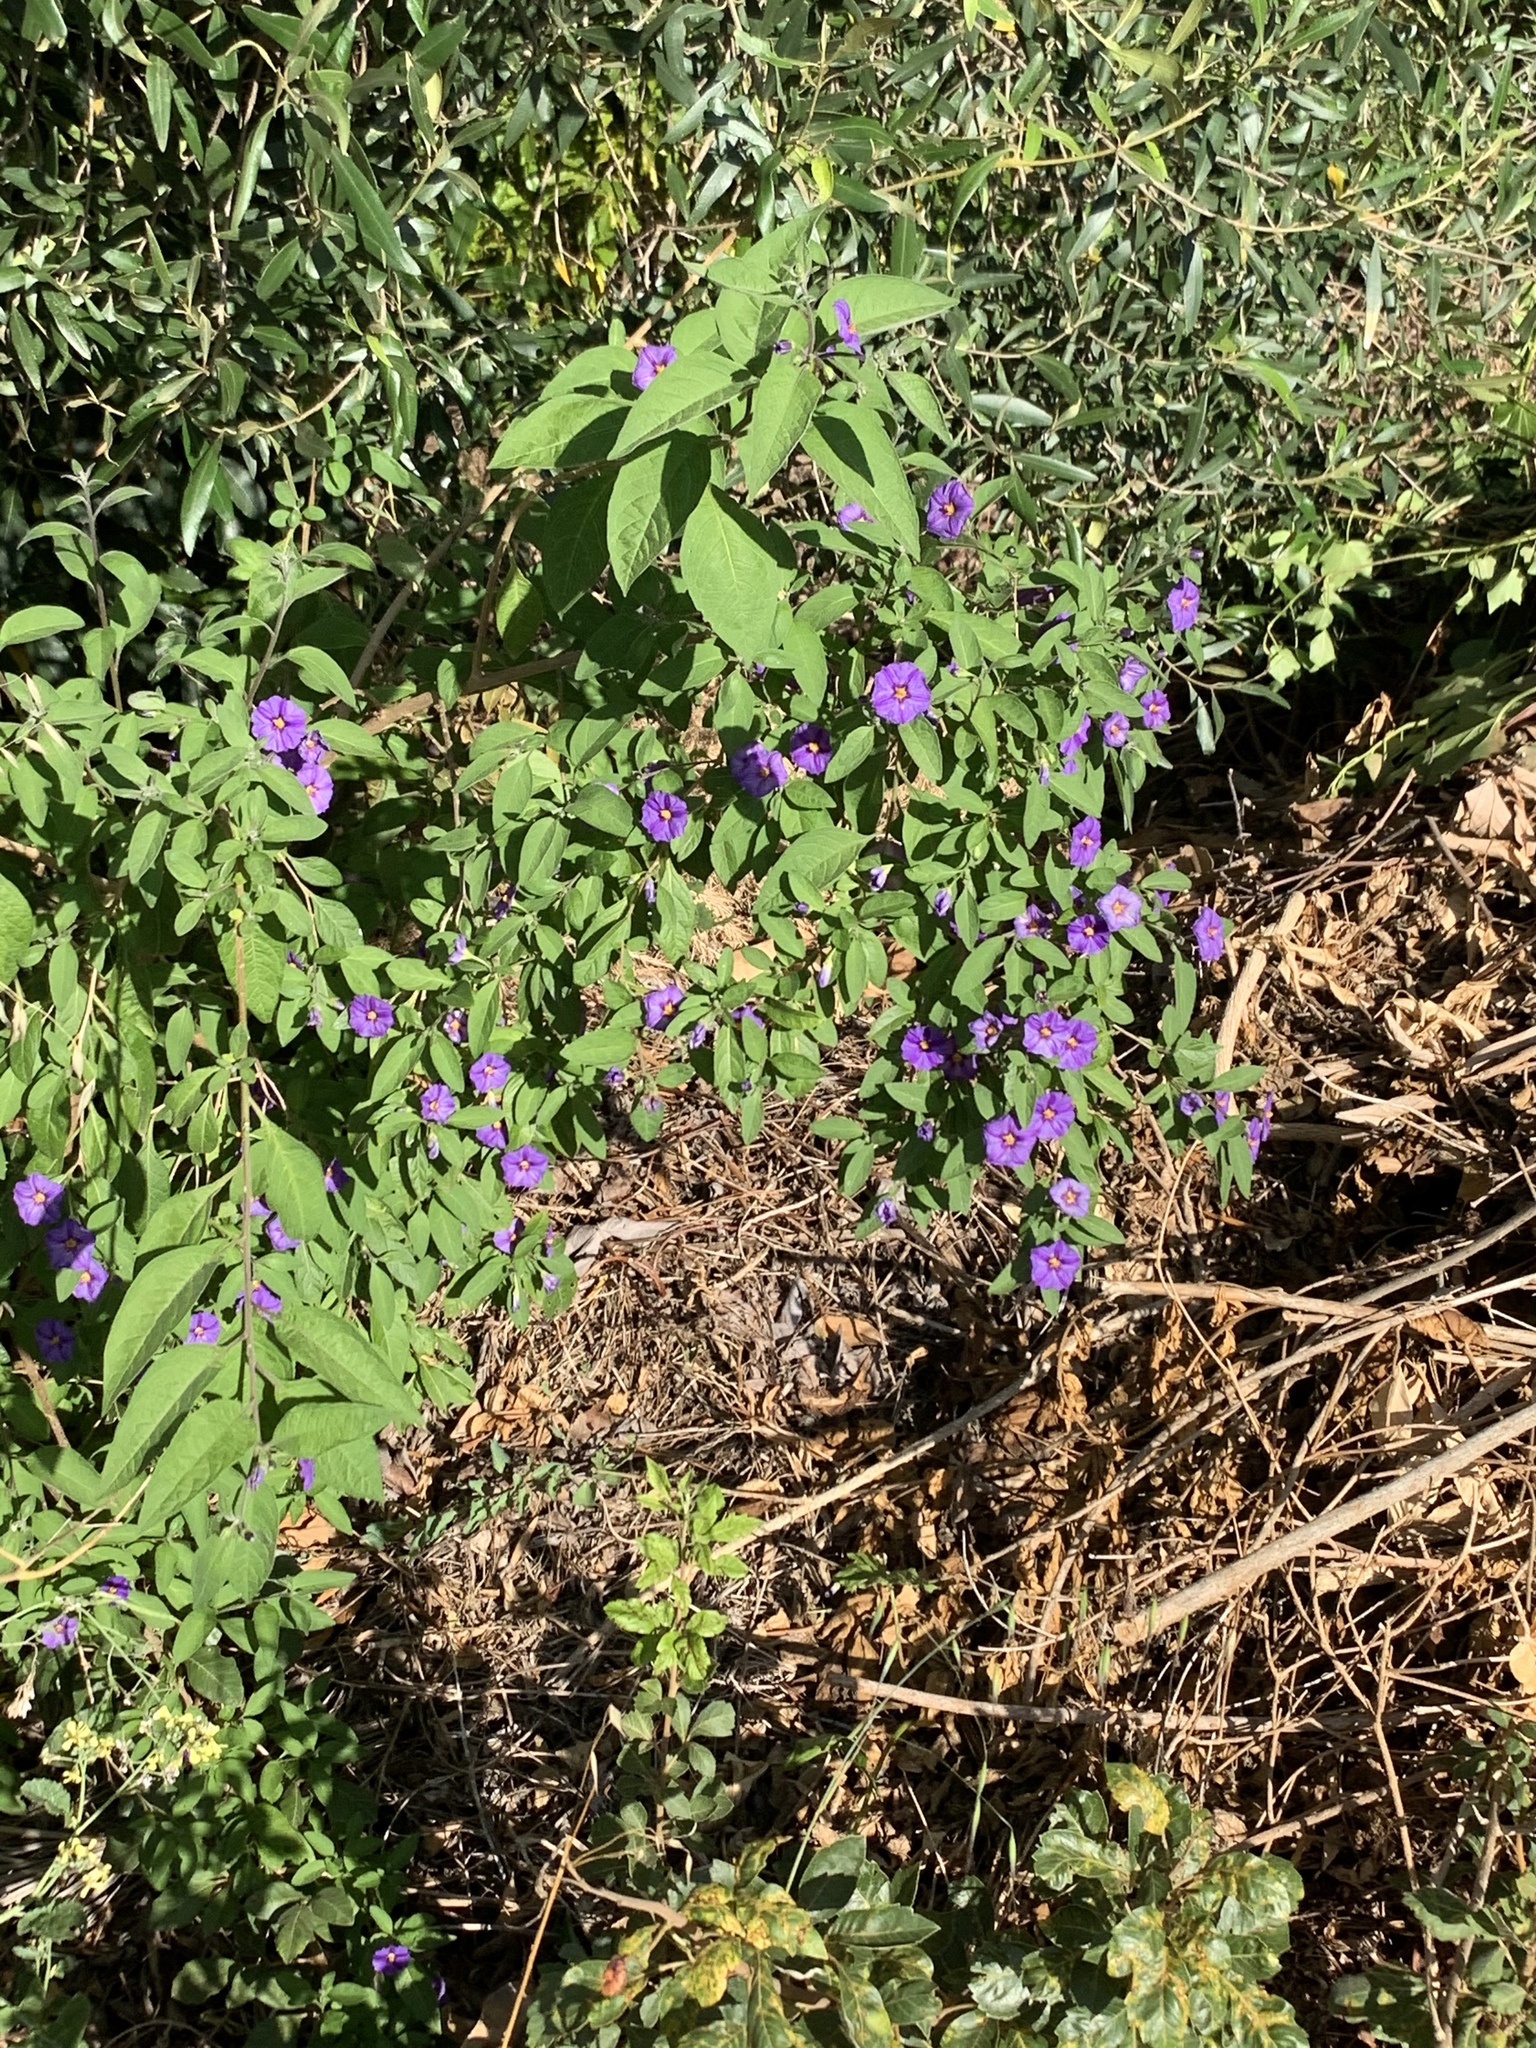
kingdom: Plantae
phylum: Tracheophyta
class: Magnoliopsida
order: Solanales
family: Solanaceae
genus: Lycianthes
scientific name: Lycianthes rantonnetii
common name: Blue potatobush
